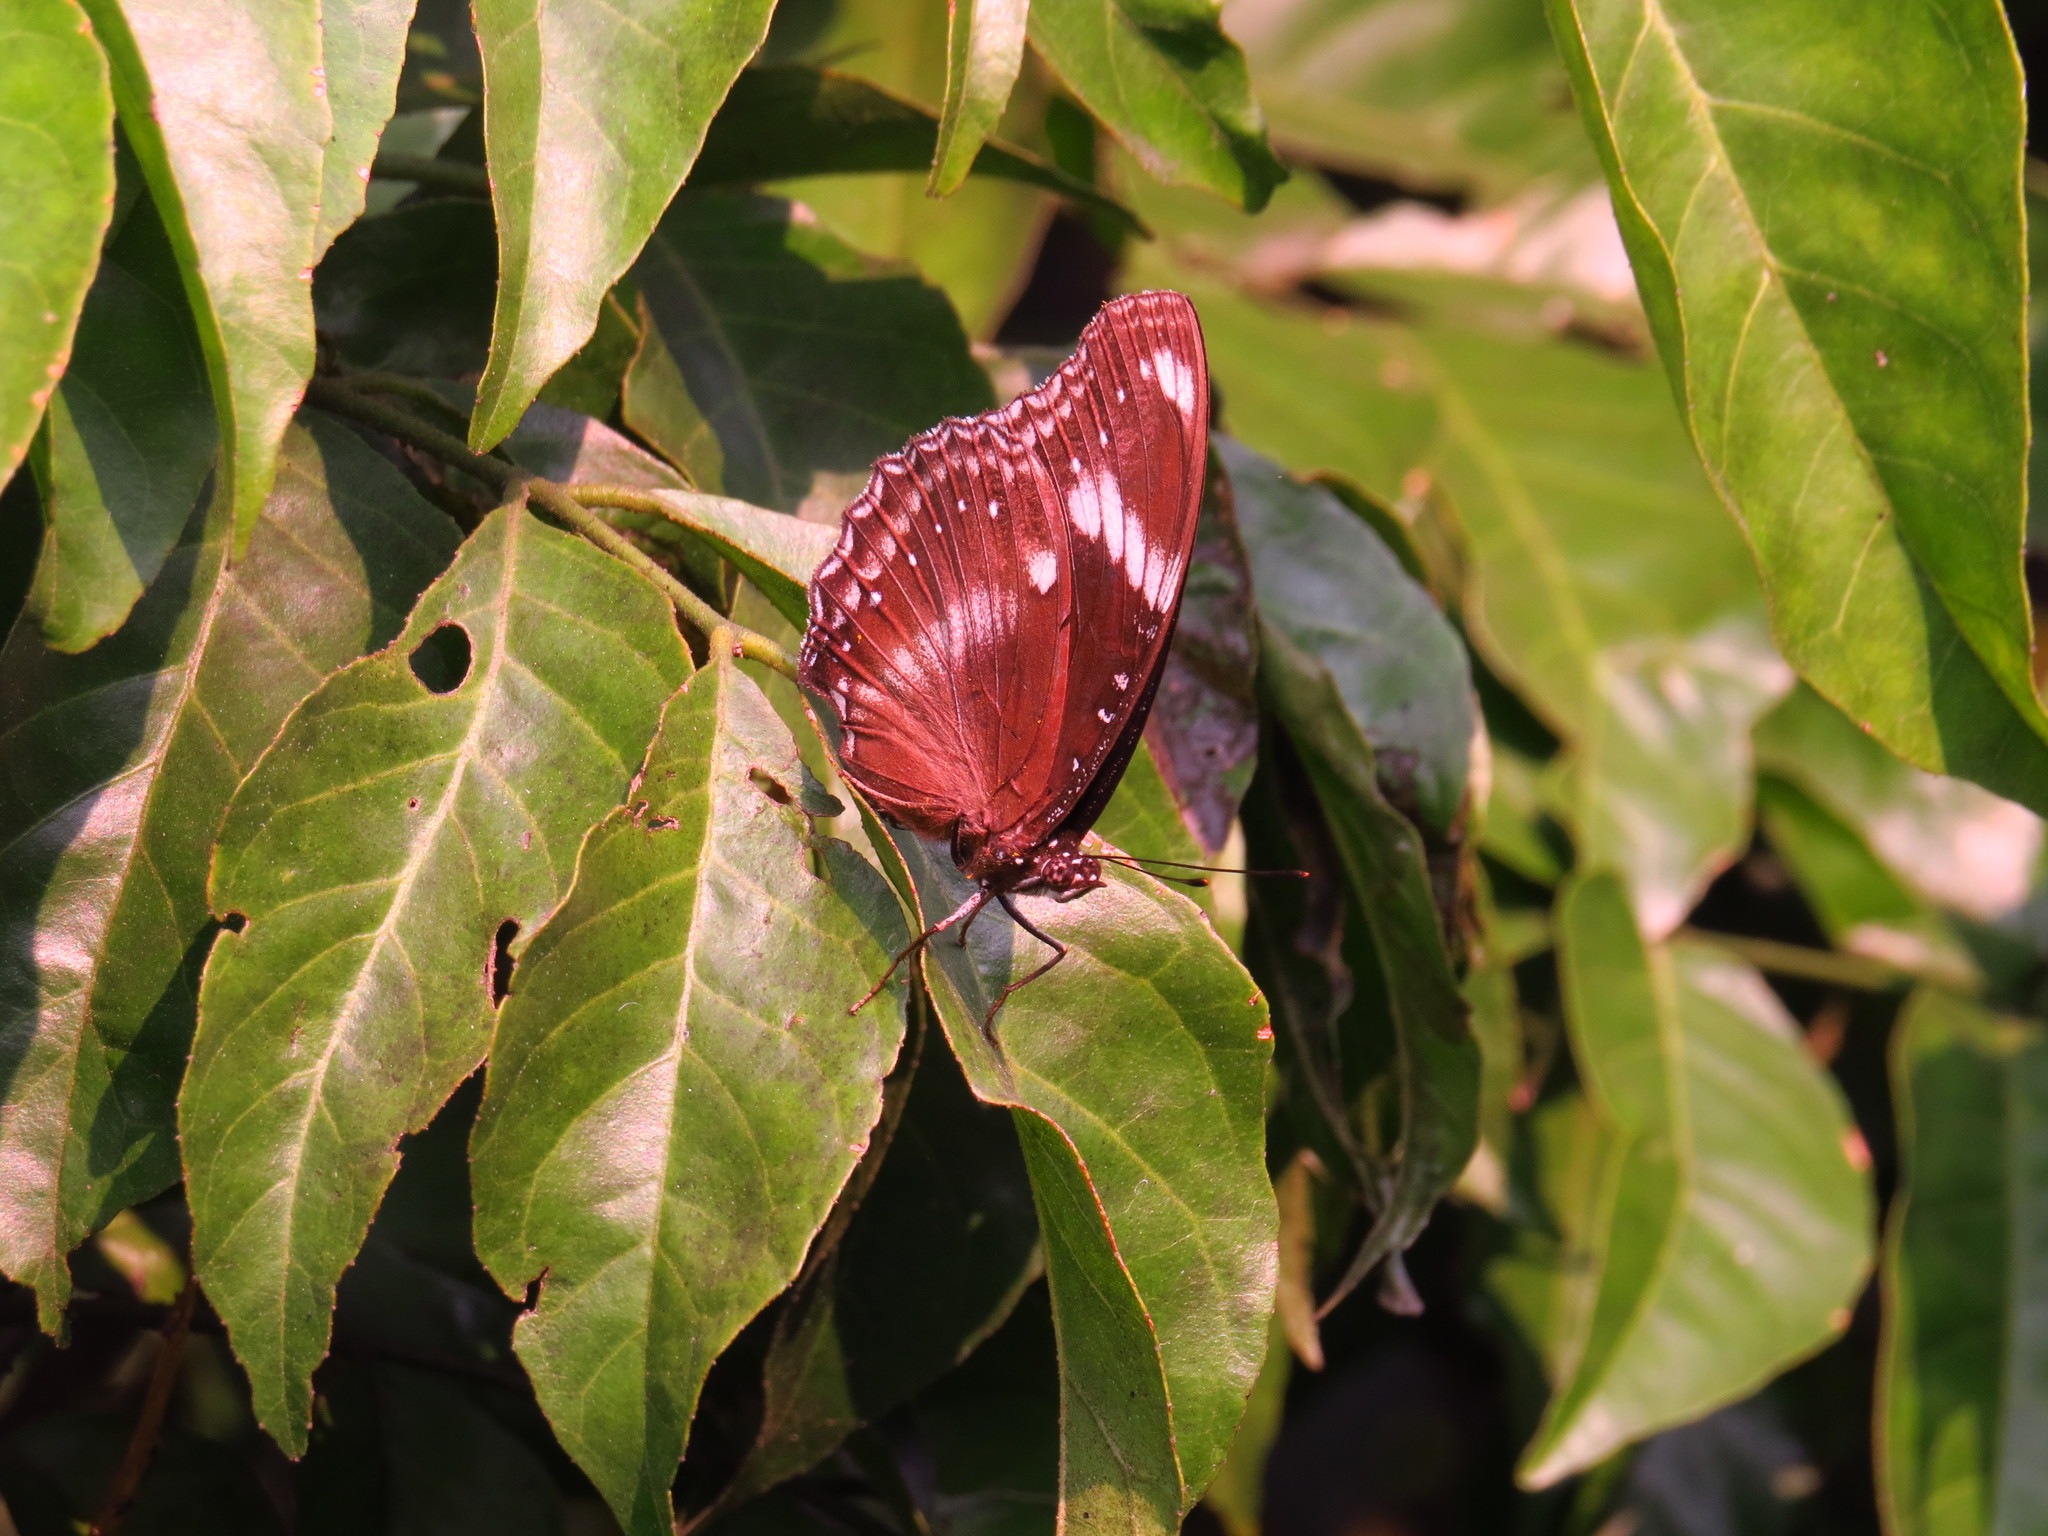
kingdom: Animalia
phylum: Arthropoda
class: Insecta
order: Lepidoptera
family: Nymphalidae
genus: Hypolimnas
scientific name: Hypolimnas bolina
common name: Great eggfly
